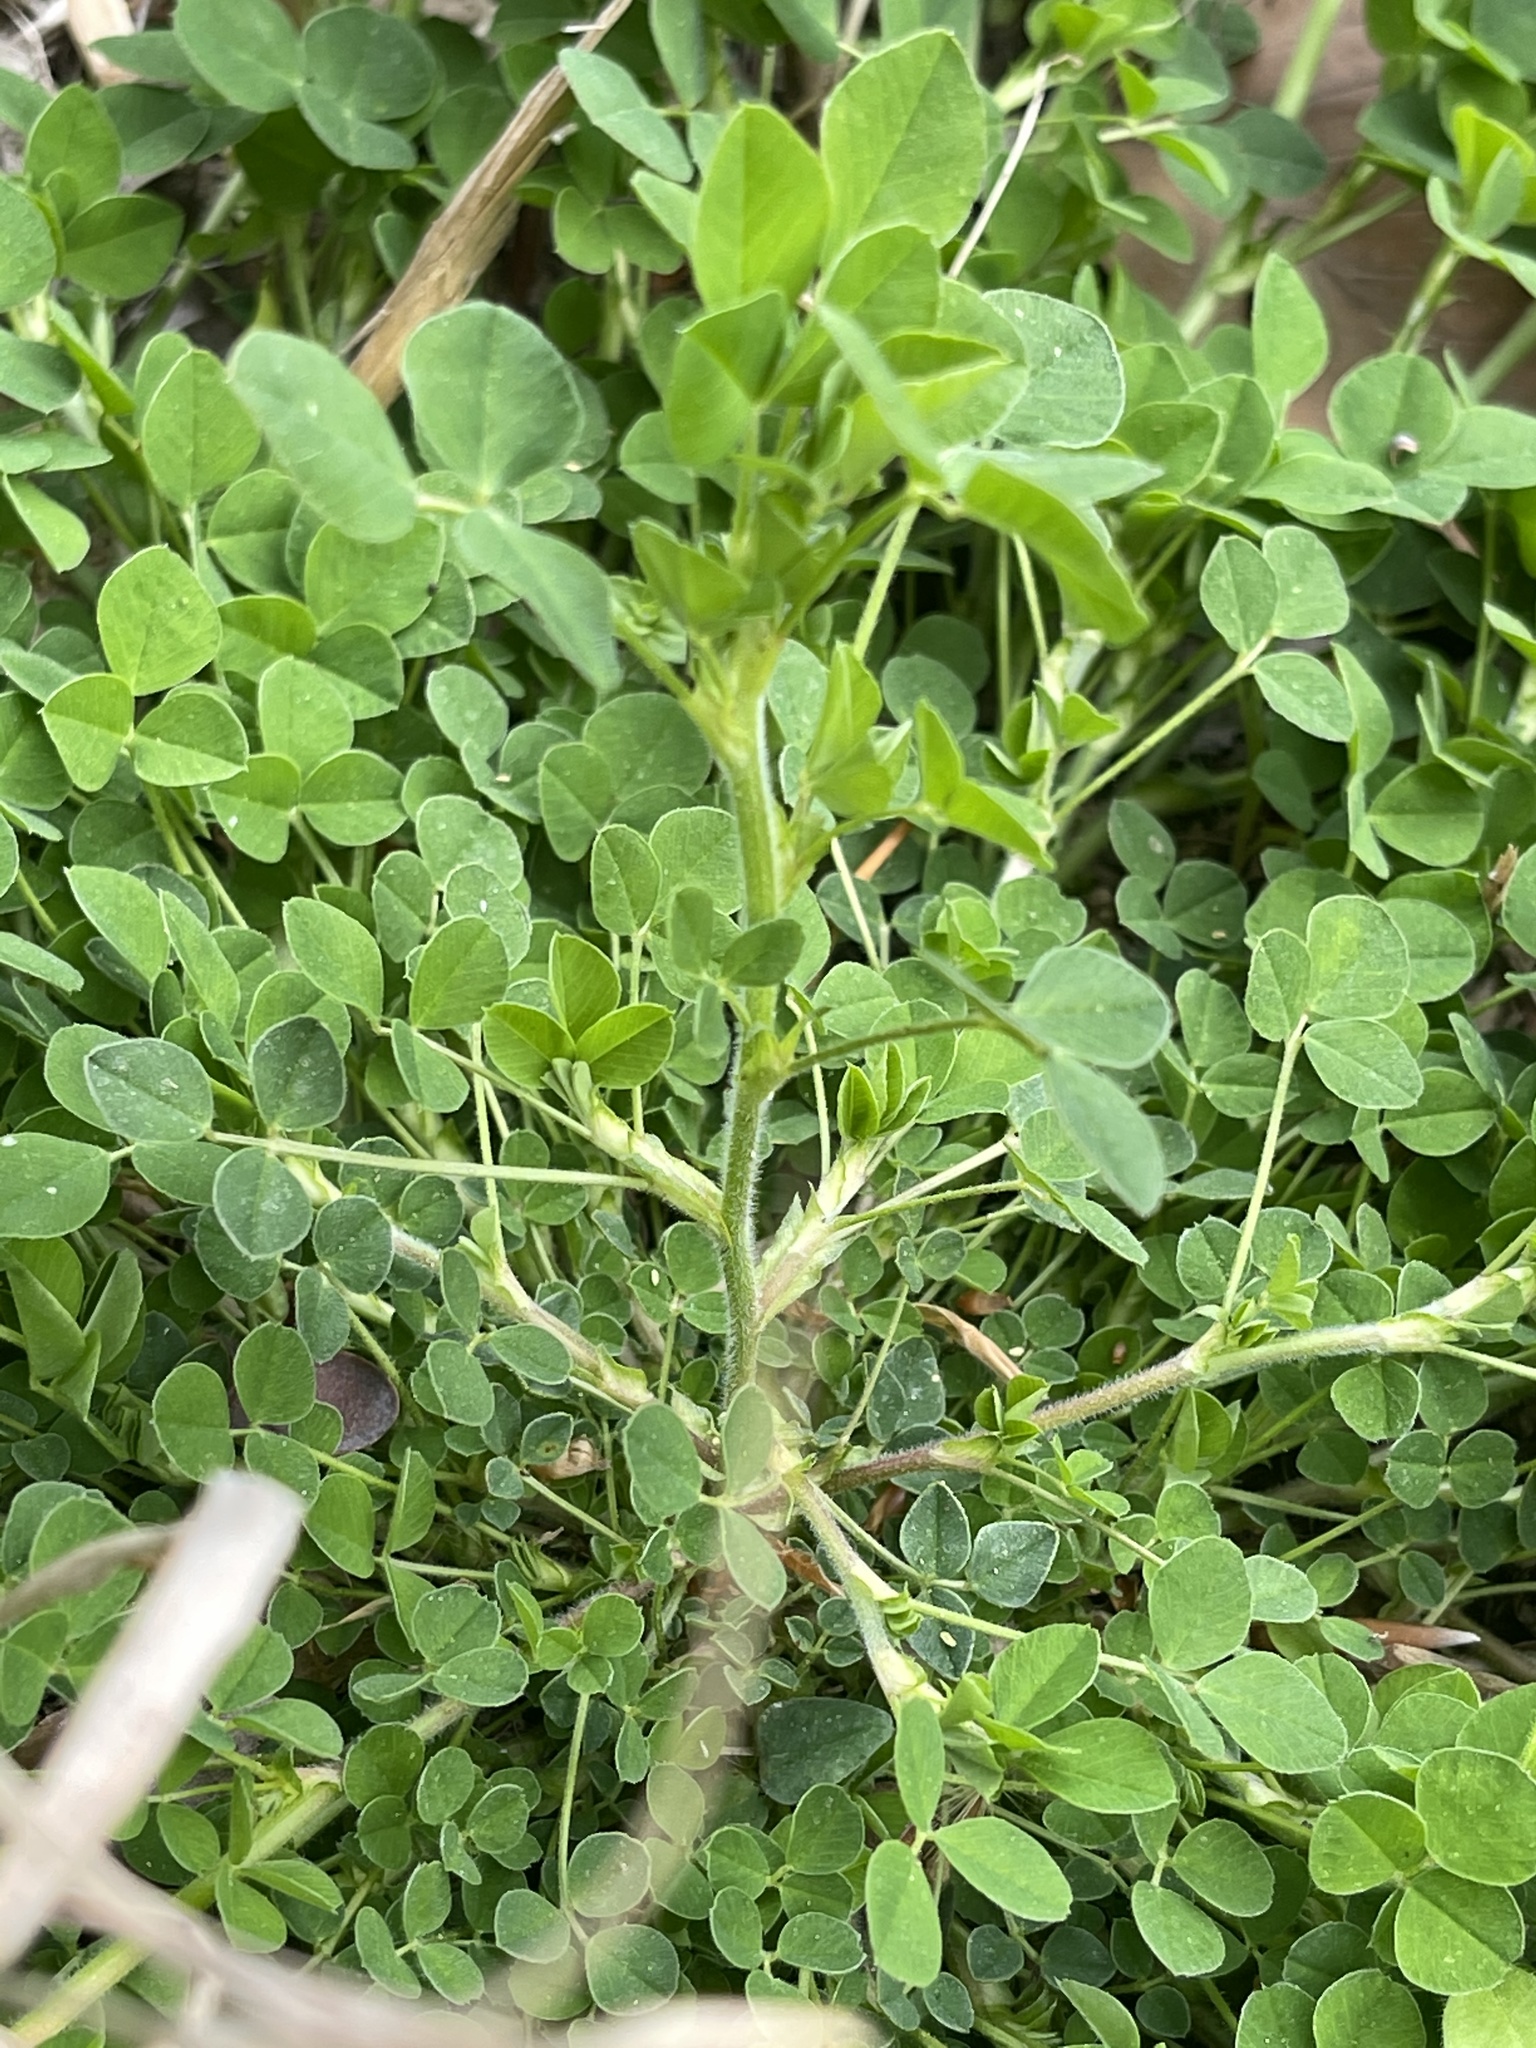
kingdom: Plantae
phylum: Tracheophyta
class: Magnoliopsida
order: Fabales
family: Fabaceae
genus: Medicago
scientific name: Medicago lupulina
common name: Black medick
